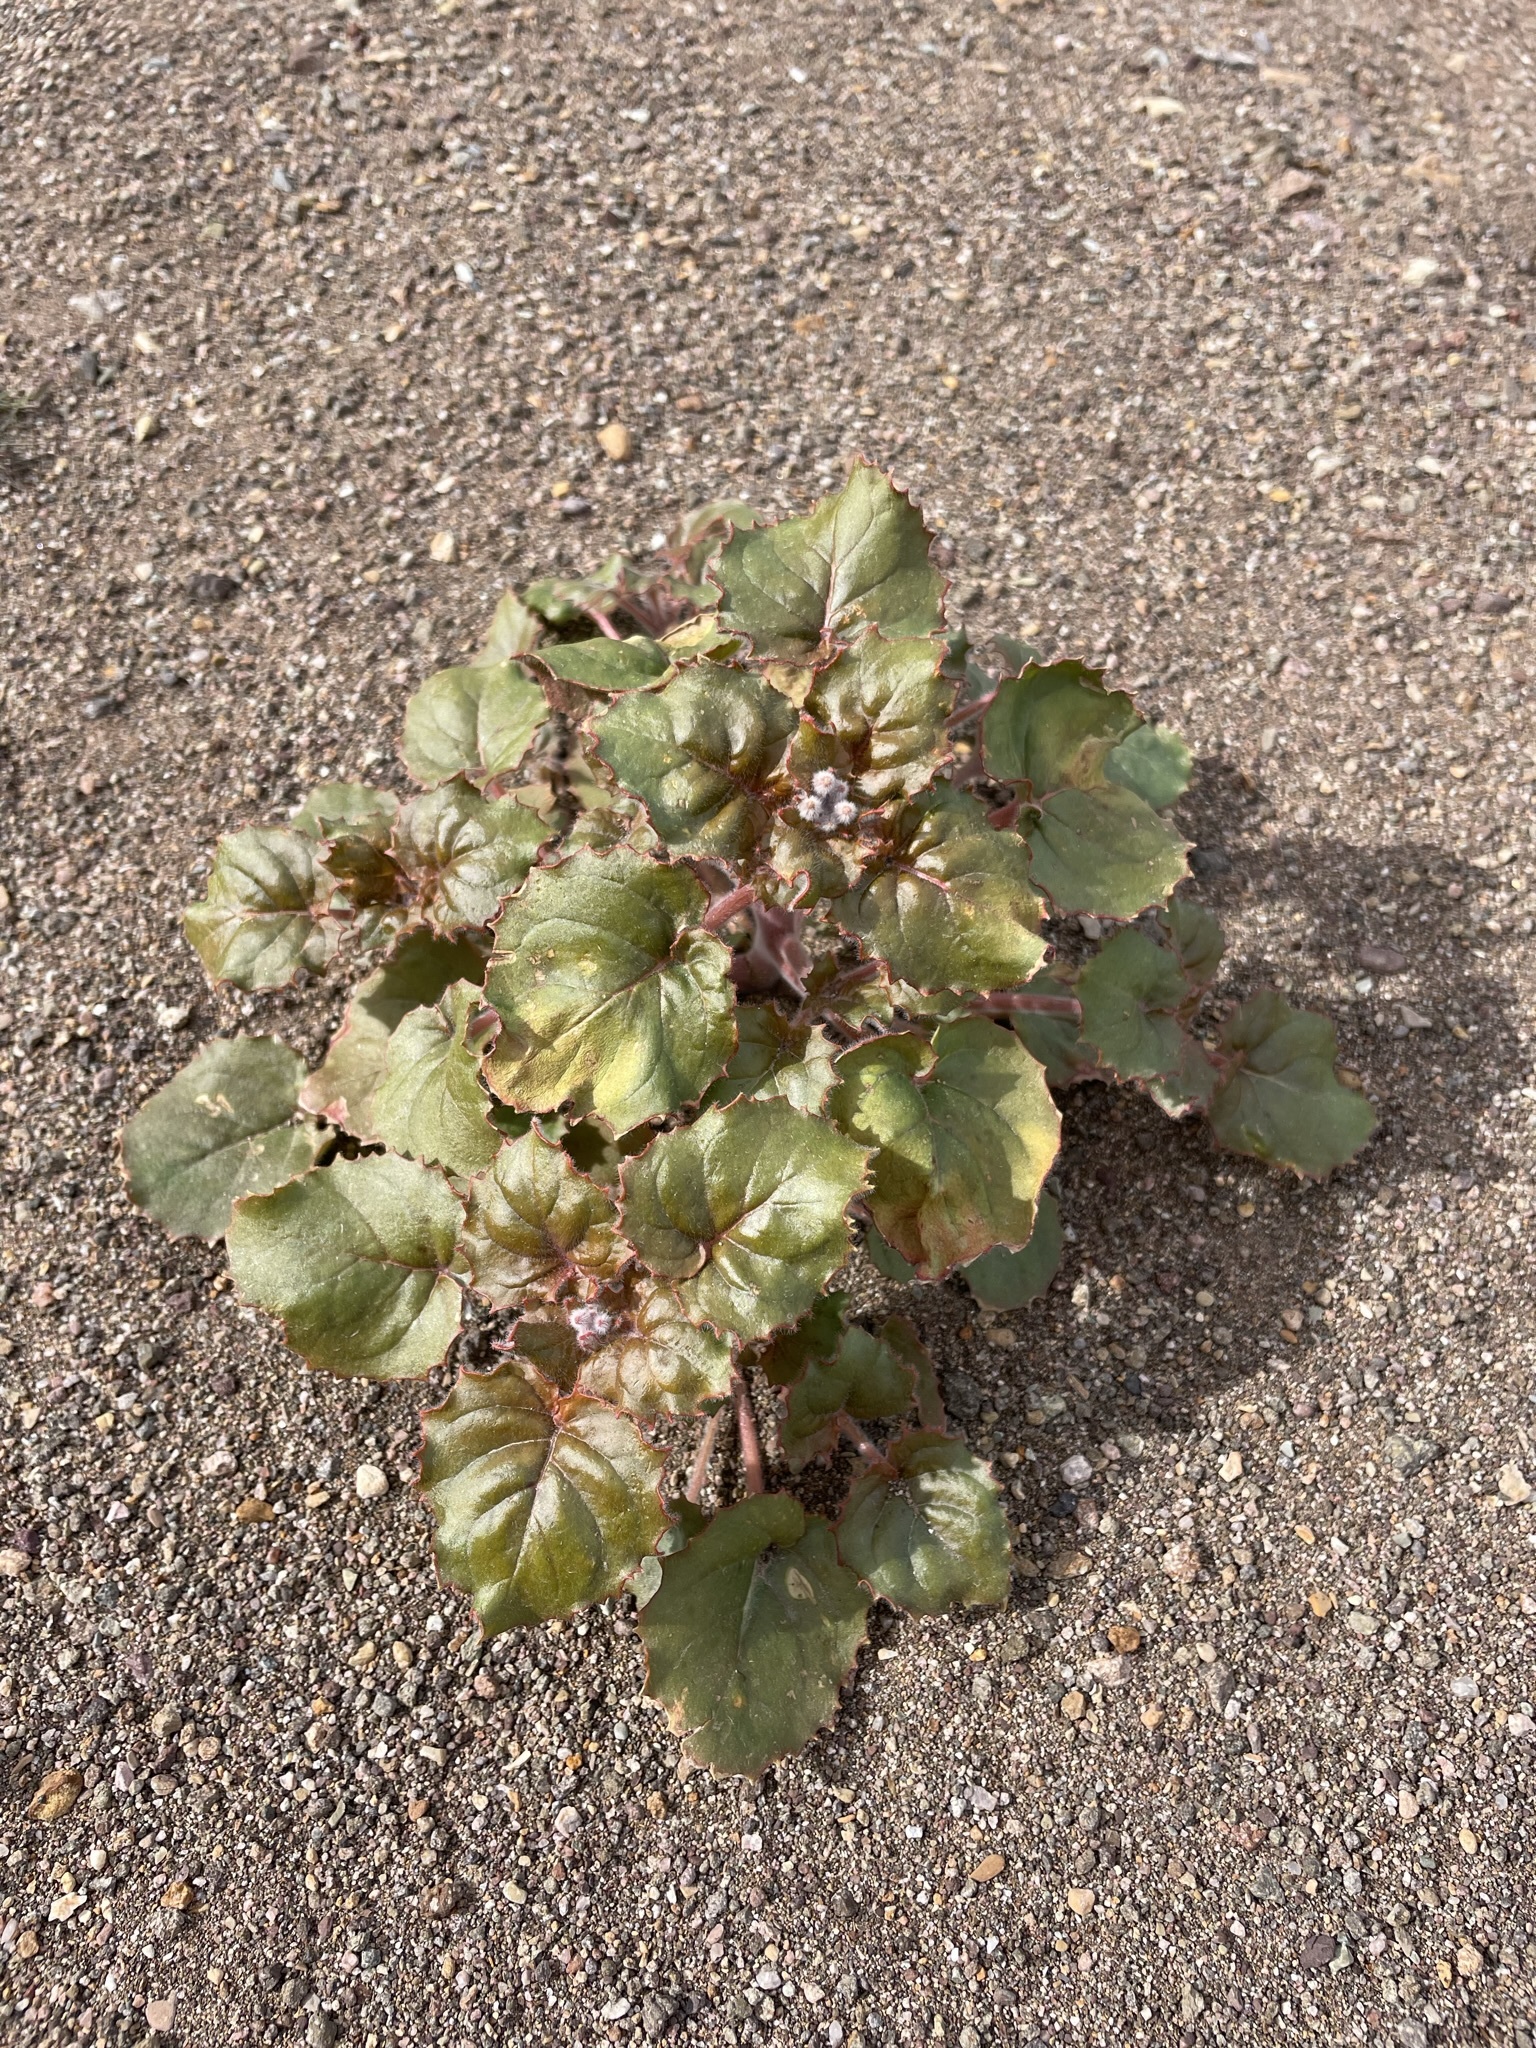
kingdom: Plantae
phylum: Tracheophyta
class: Magnoliopsida
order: Myrtales
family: Onagraceae
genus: Chylismia
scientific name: Chylismia cardiophylla
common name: Heartleaf suncup
